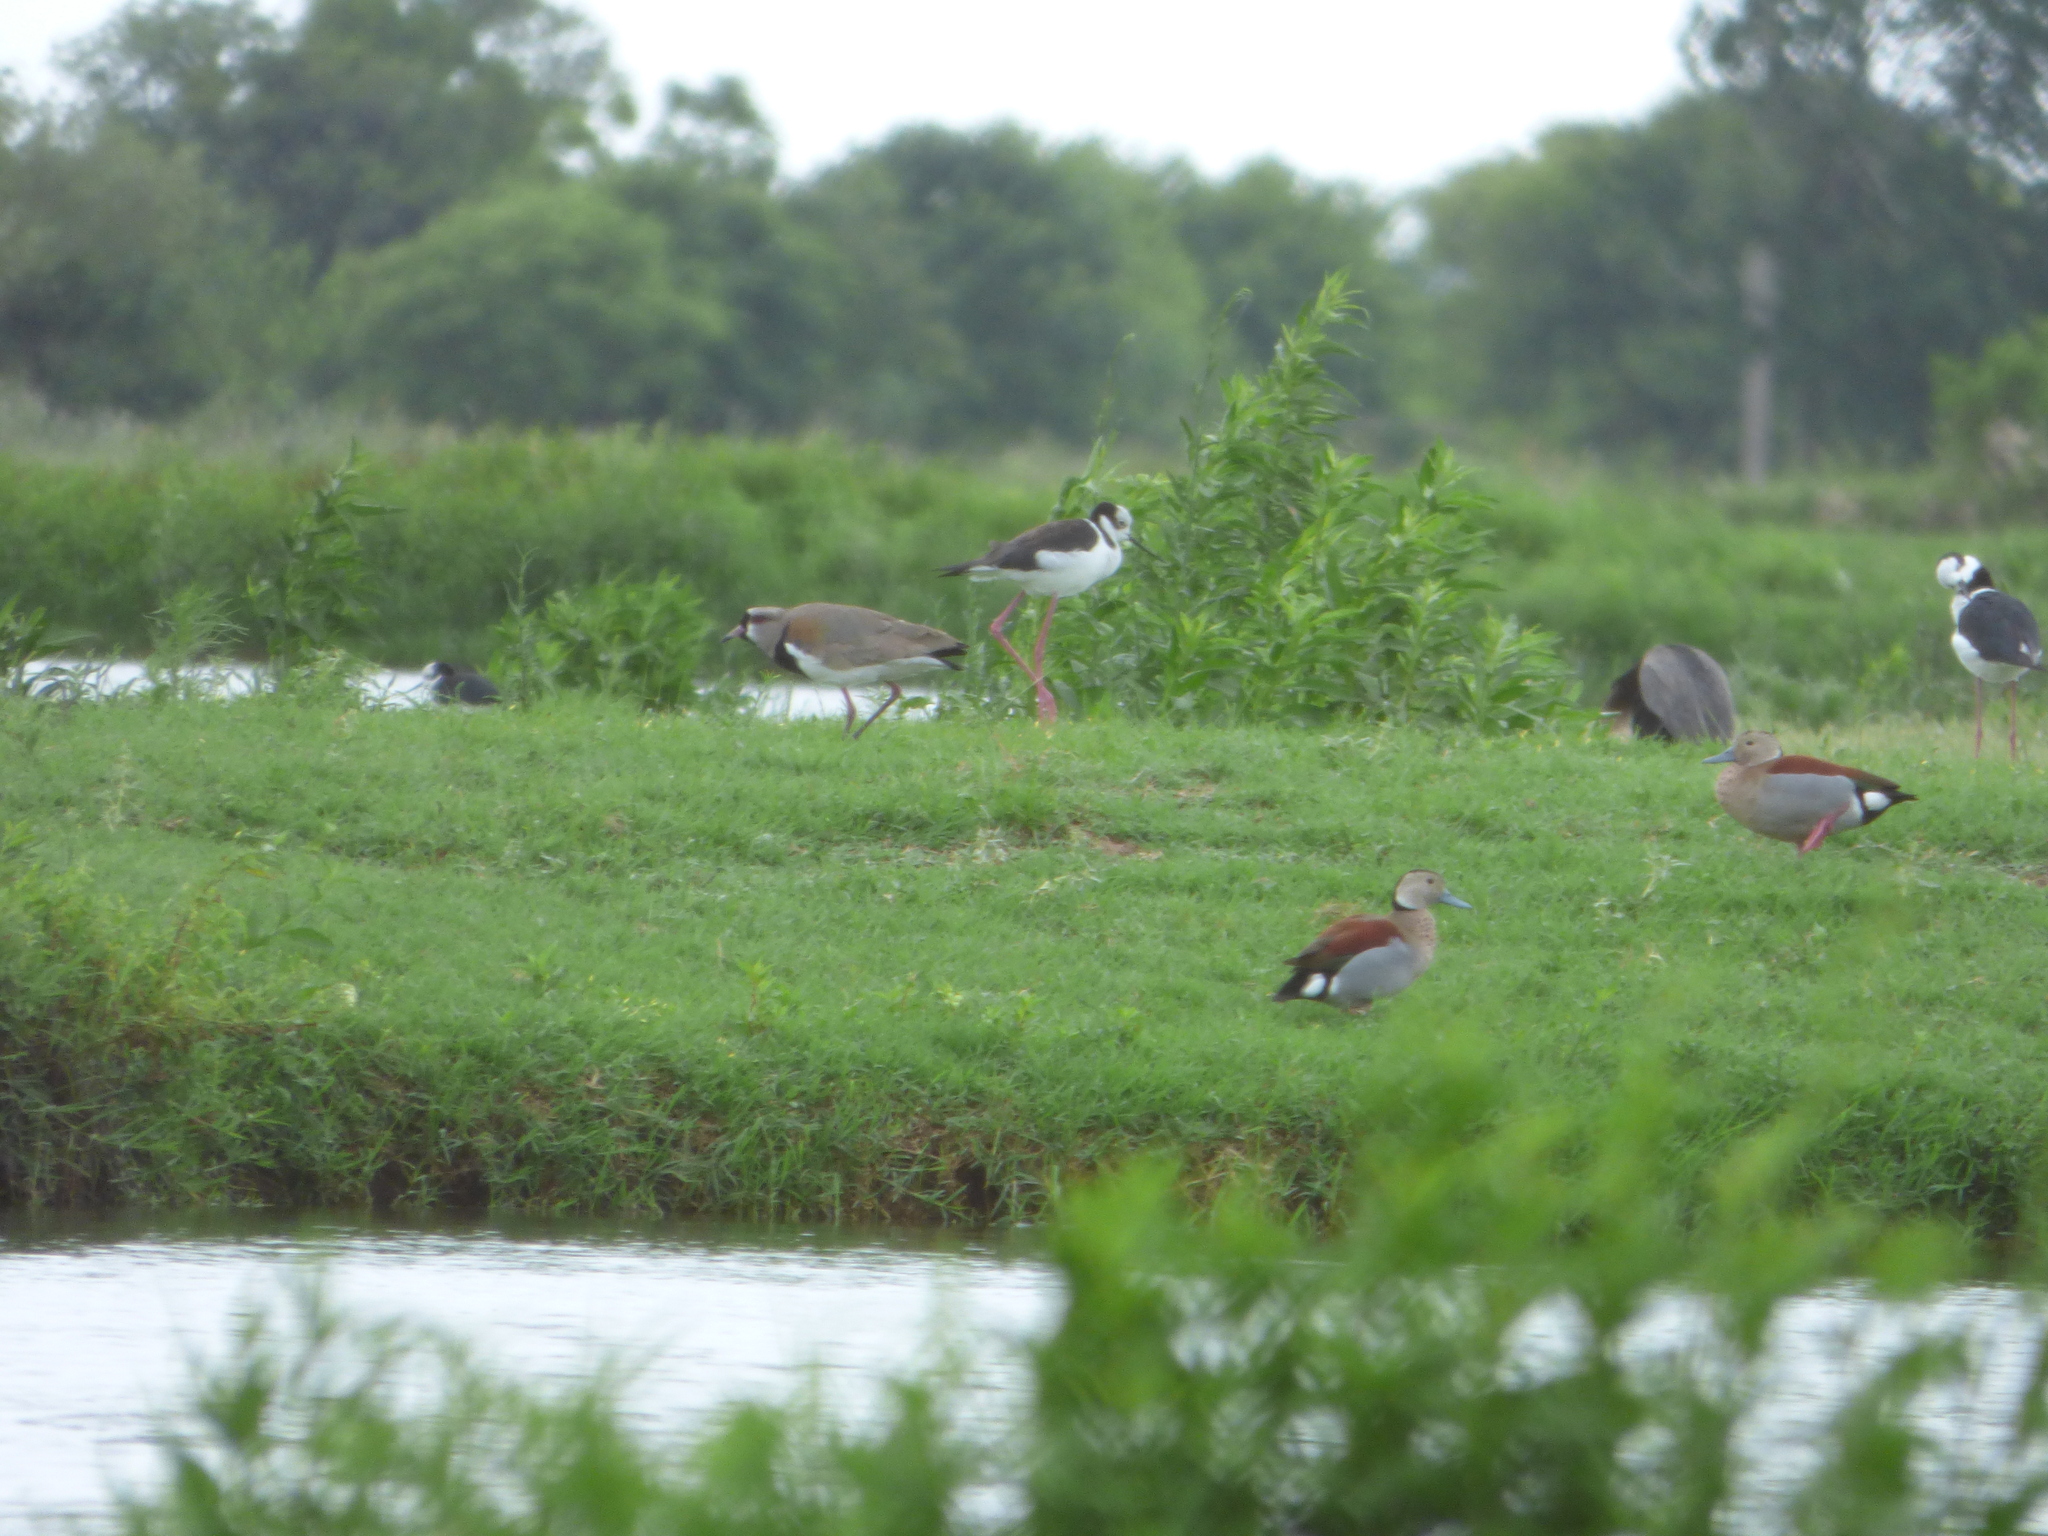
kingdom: Animalia
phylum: Chordata
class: Aves
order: Anseriformes
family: Anatidae
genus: Callonetta
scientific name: Callonetta leucophrys
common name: Ringed teal
